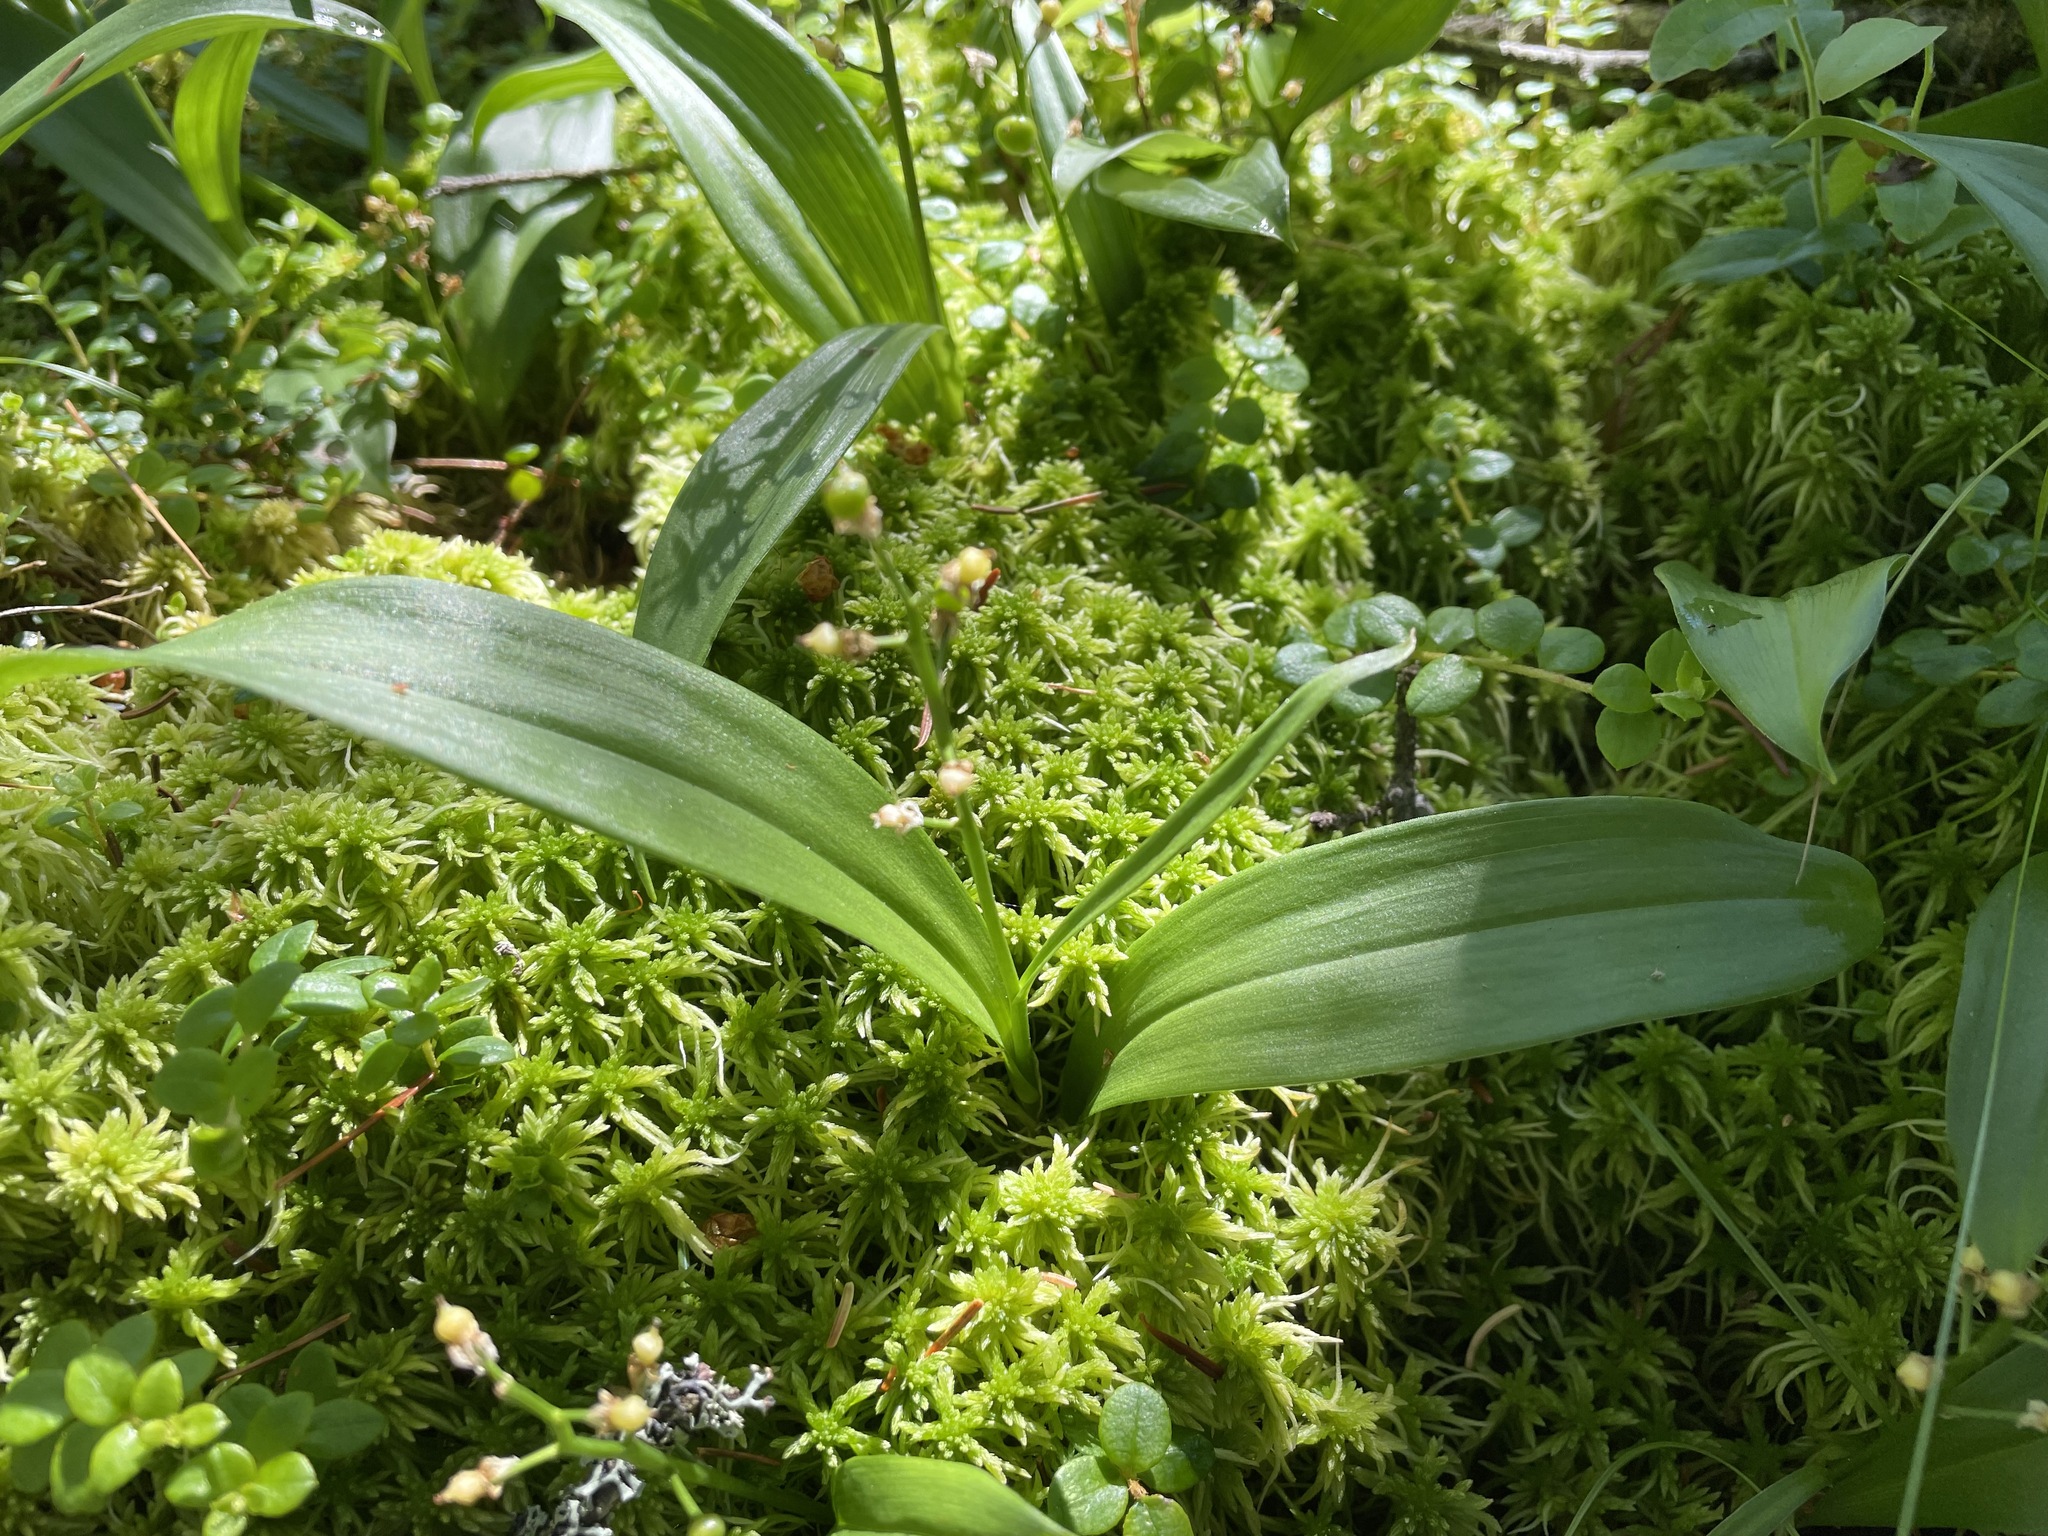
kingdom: Plantae
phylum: Tracheophyta
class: Liliopsida
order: Asparagales
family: Asparagaceae
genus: Maianthemum
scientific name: Maianthemum trifolium
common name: Swamp false solomon's seal
